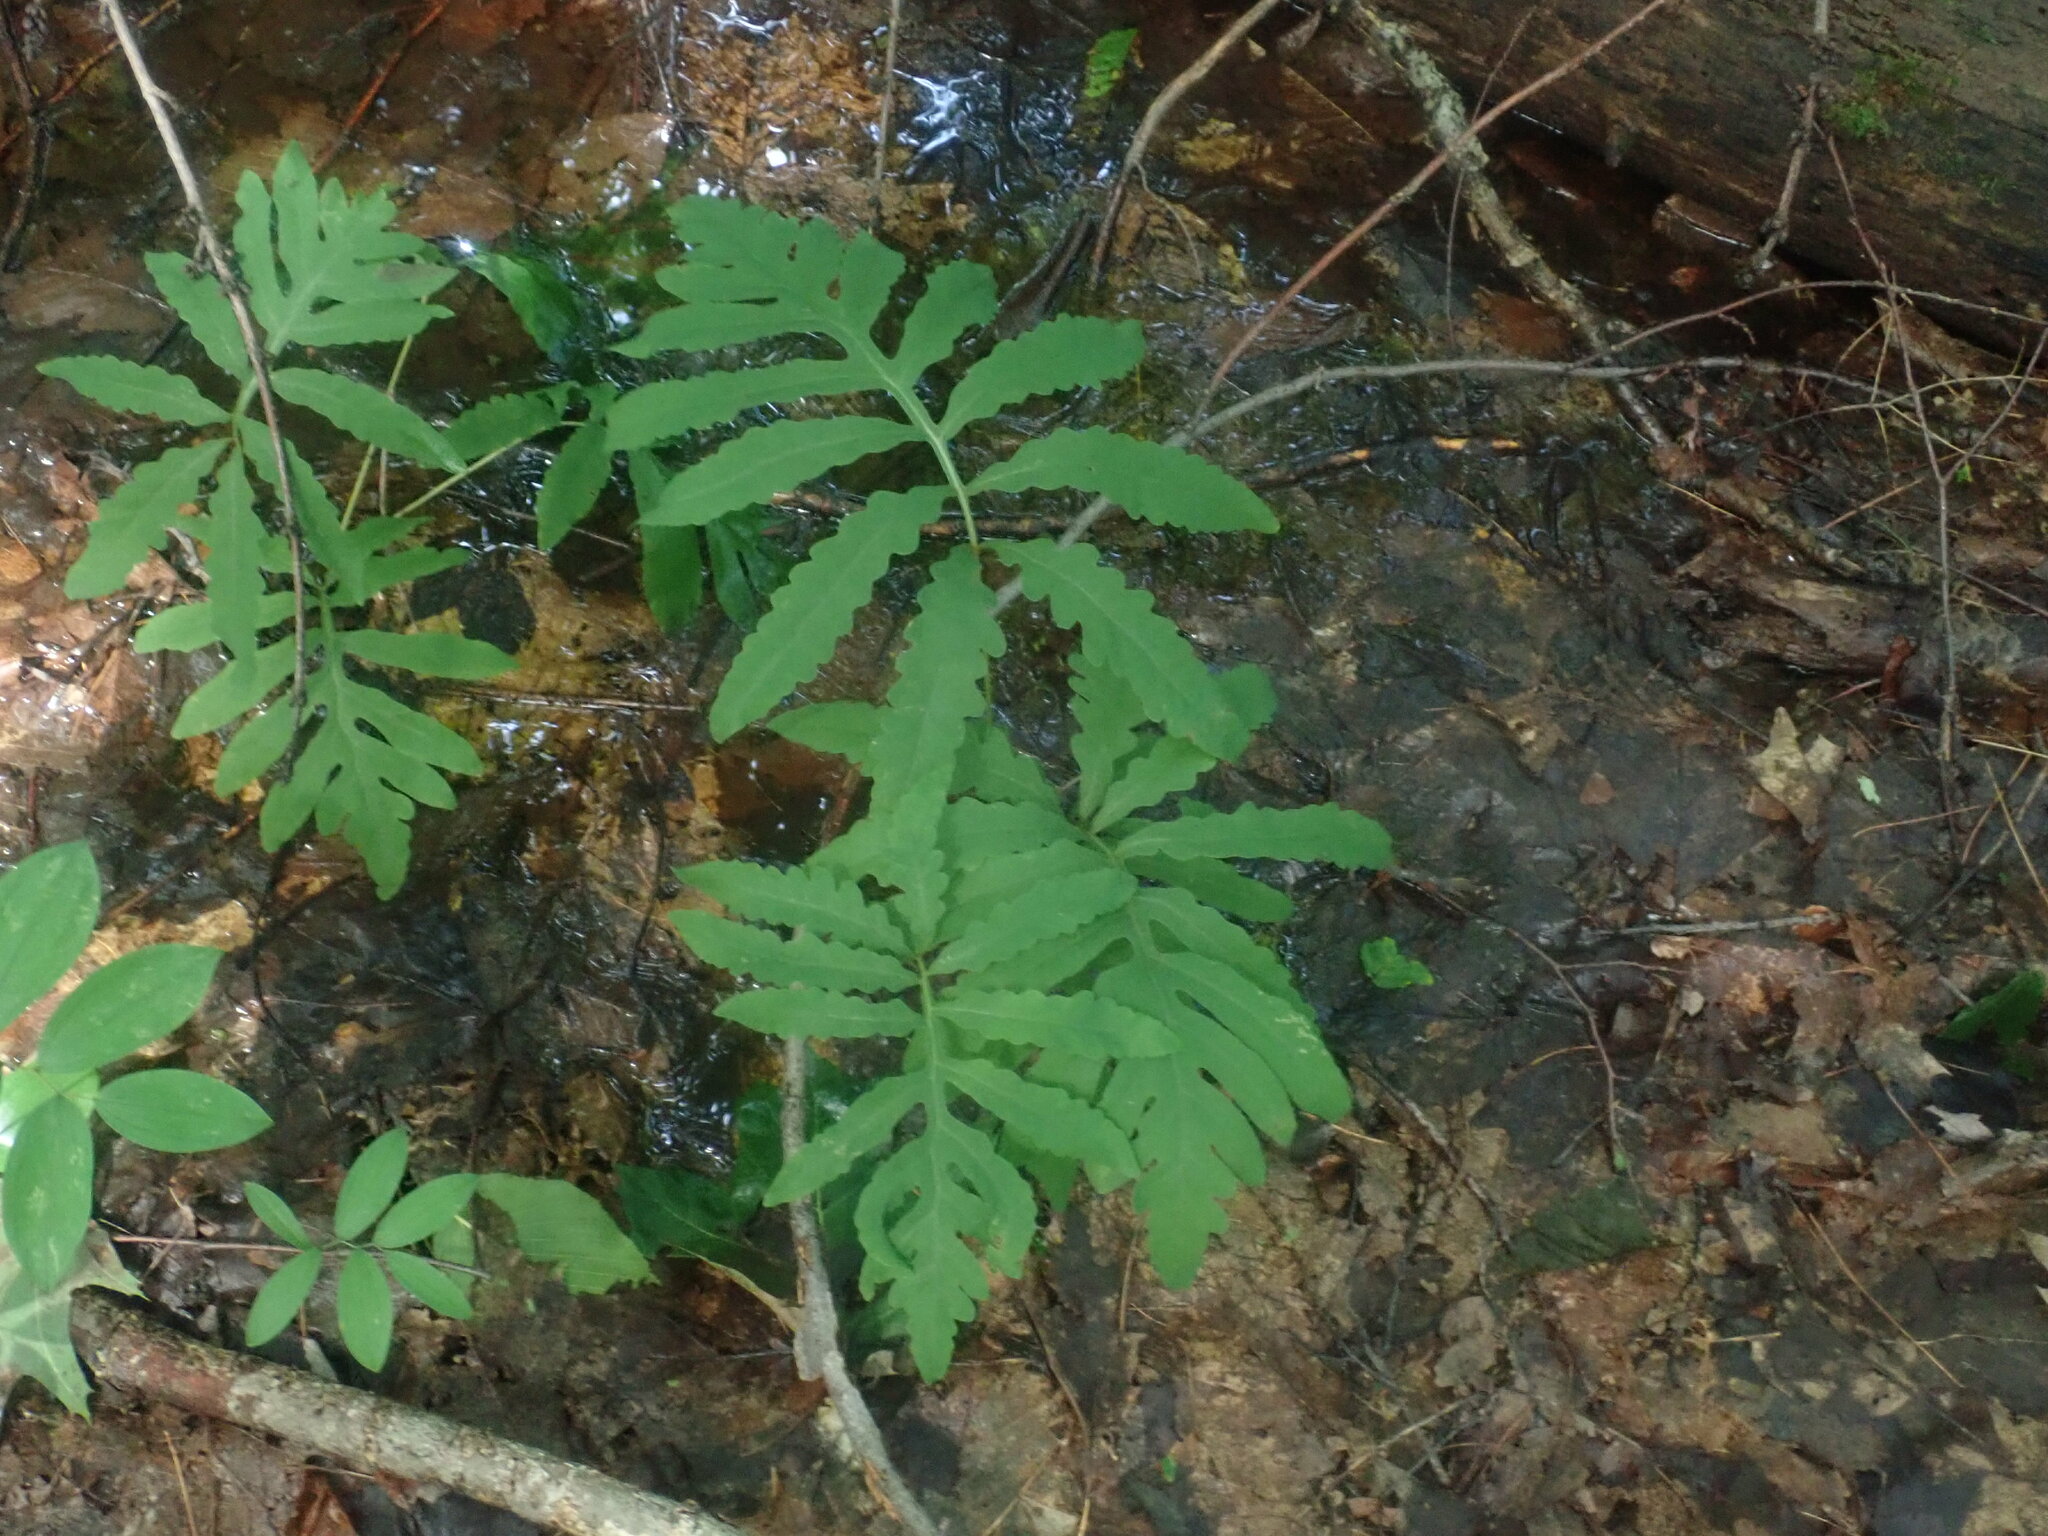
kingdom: Plantae
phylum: Tracheophyta
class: Polypodiopsida
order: Polypodiales
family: Onocleaceae
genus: Onoclea
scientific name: Onoclea sensibilis
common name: Sensitive fern
